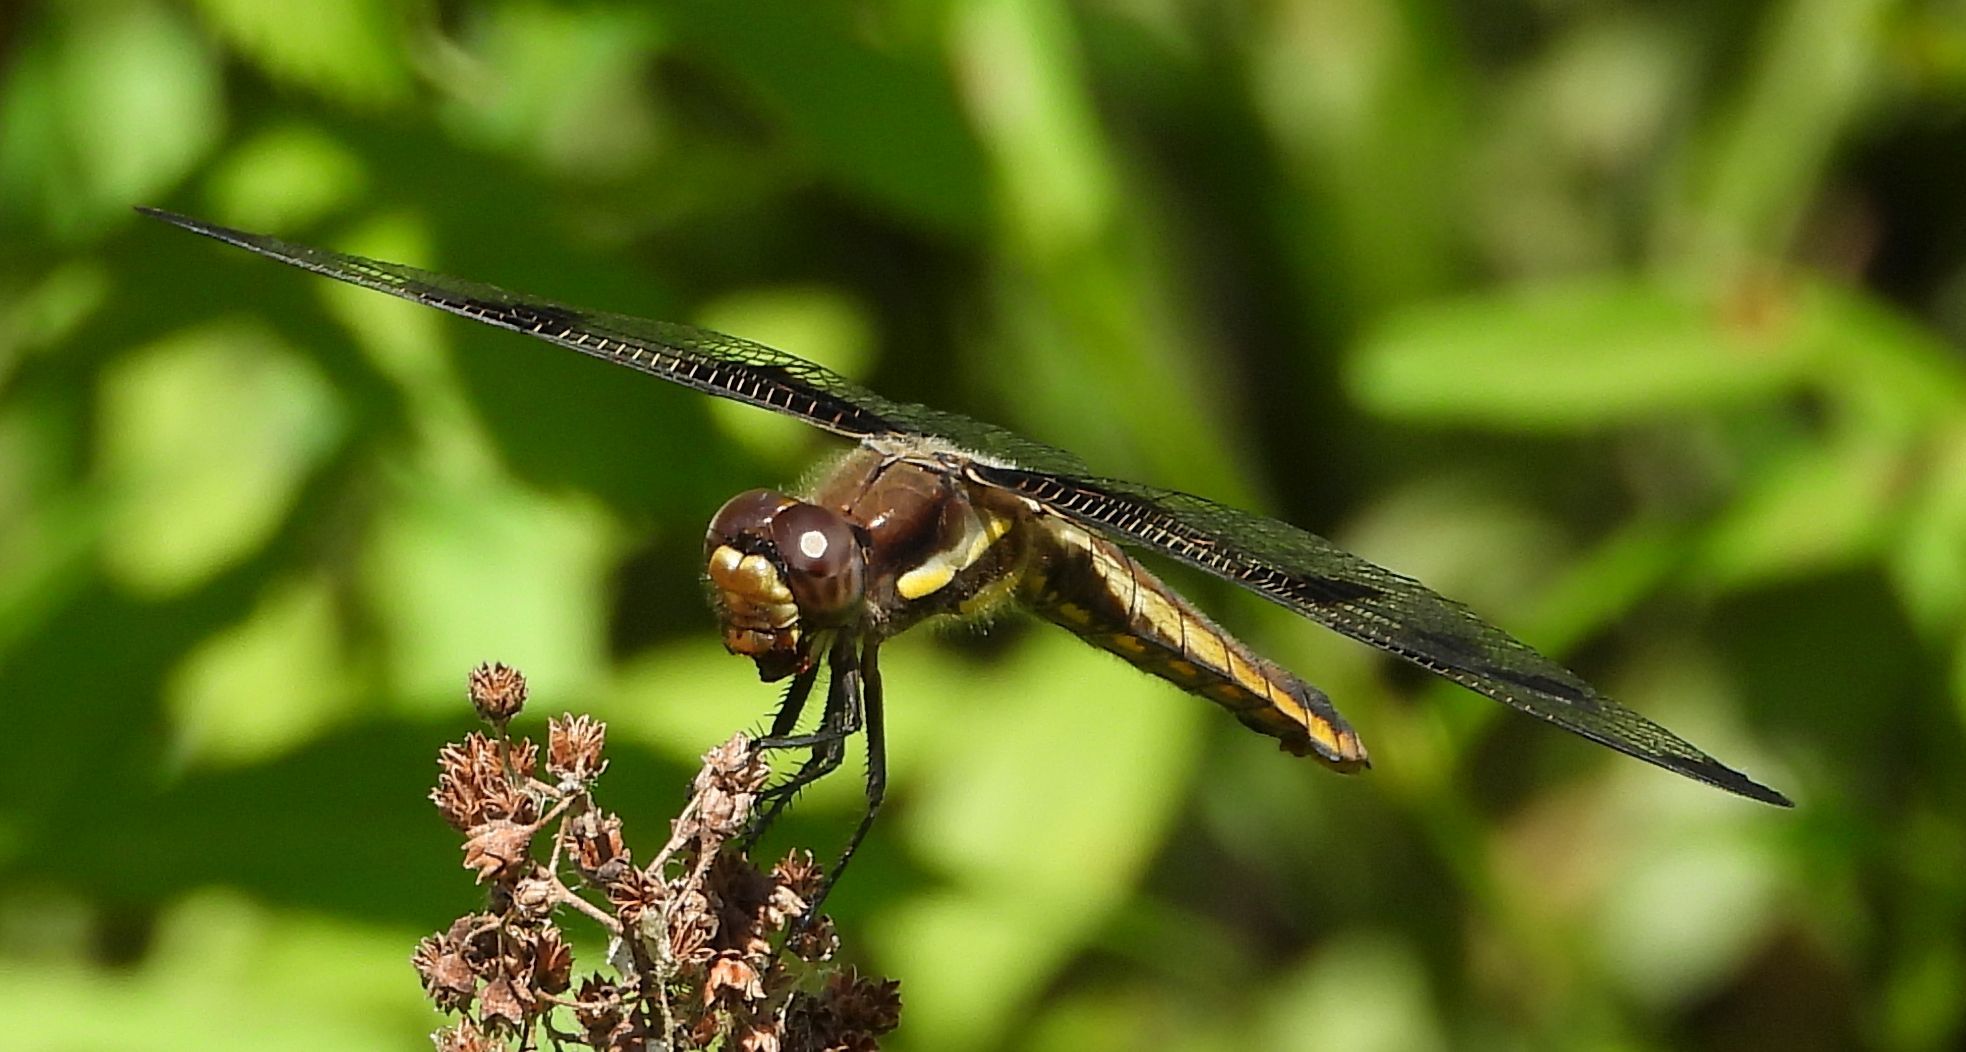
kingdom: Animalia
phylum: Arthropoda
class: Insecta
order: Odonata
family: Libellulidae
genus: Libellula
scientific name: Libellula pulchella
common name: Twelve-spotted skimmer
